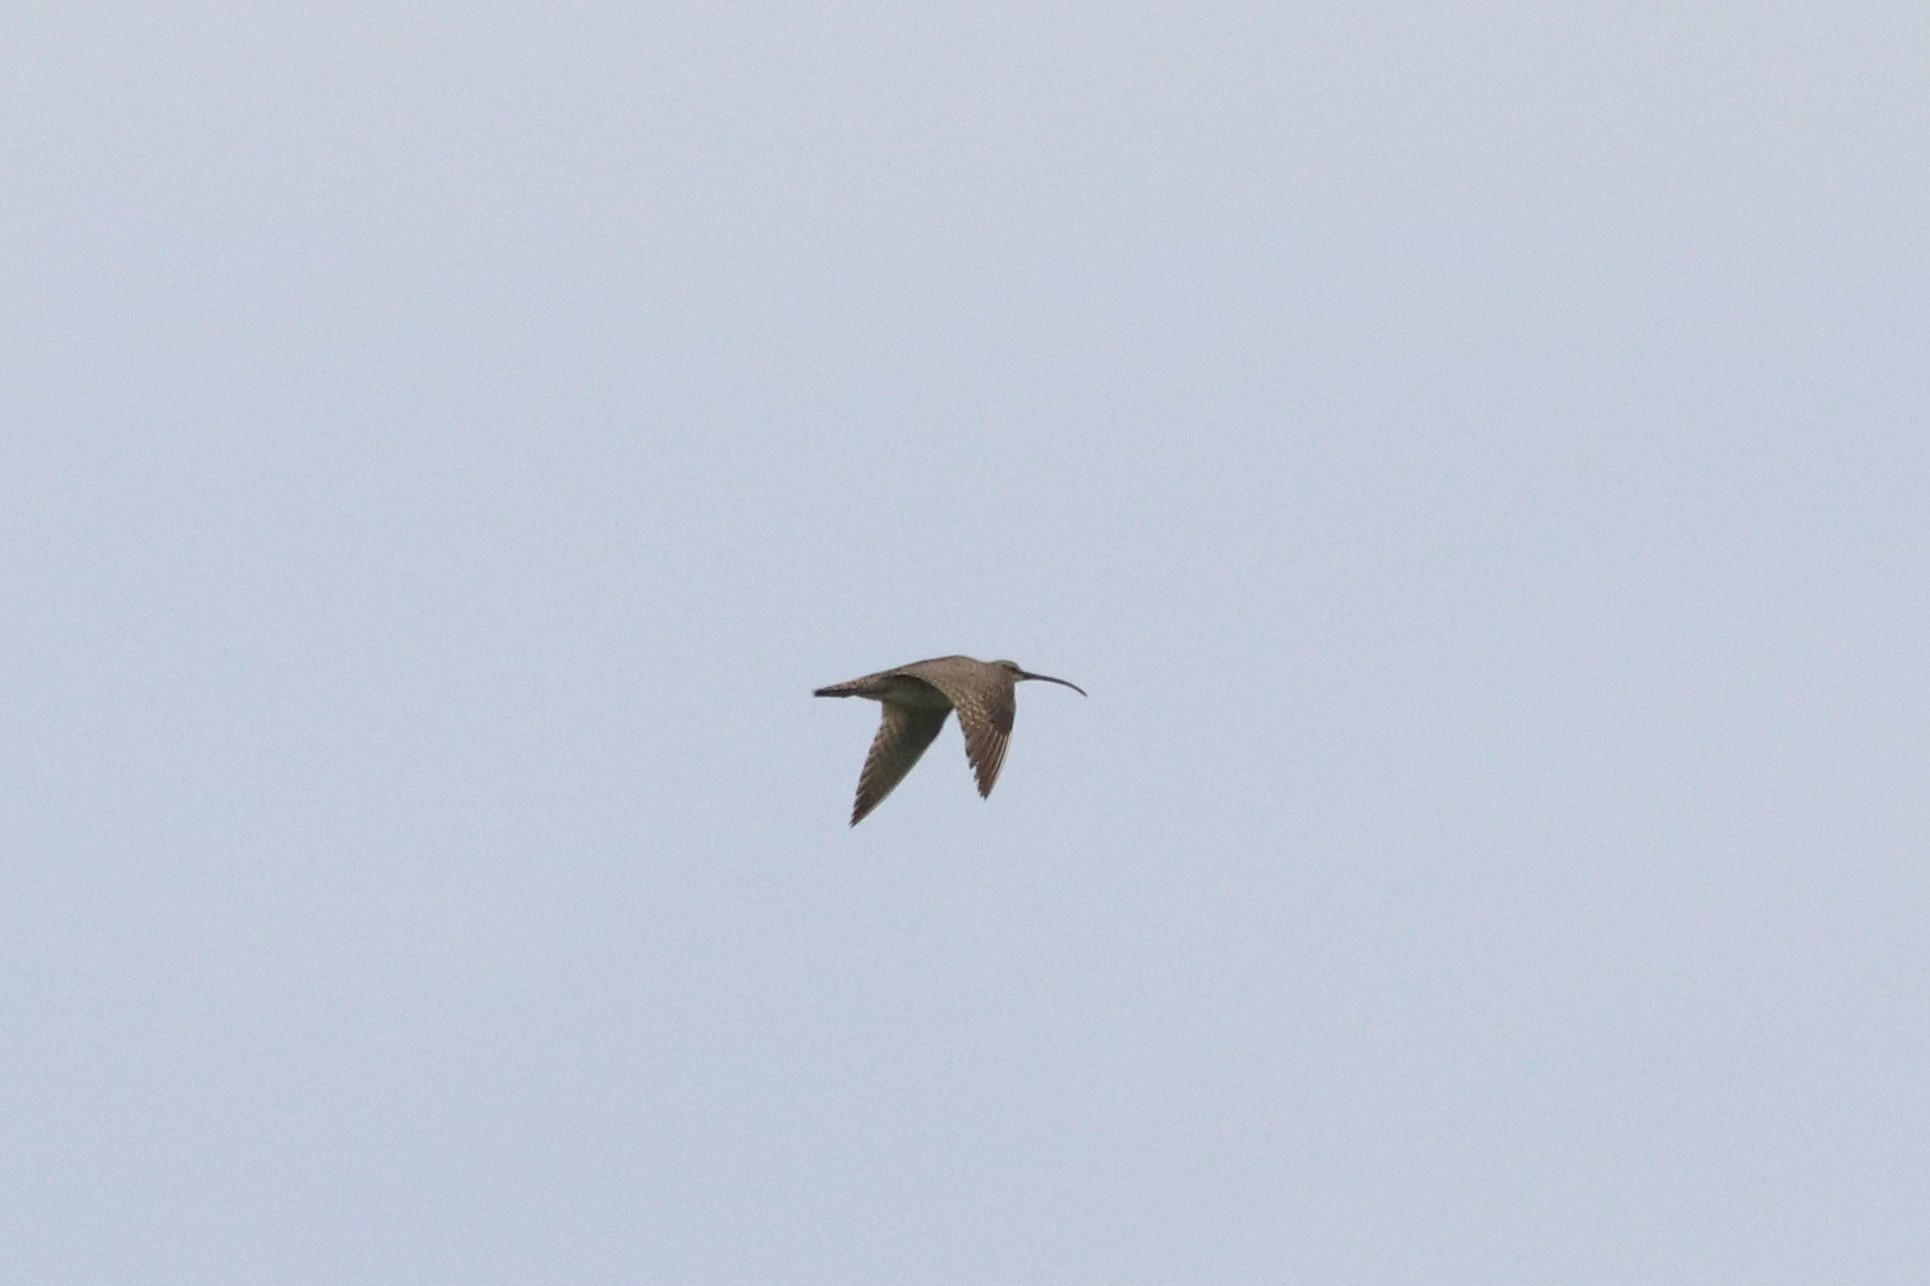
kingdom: Animalia
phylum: Chordata
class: Aves
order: Charadriiformes
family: Scolopacidae
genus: Numenius
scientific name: Numenius phaeopus
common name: Whimbrel
